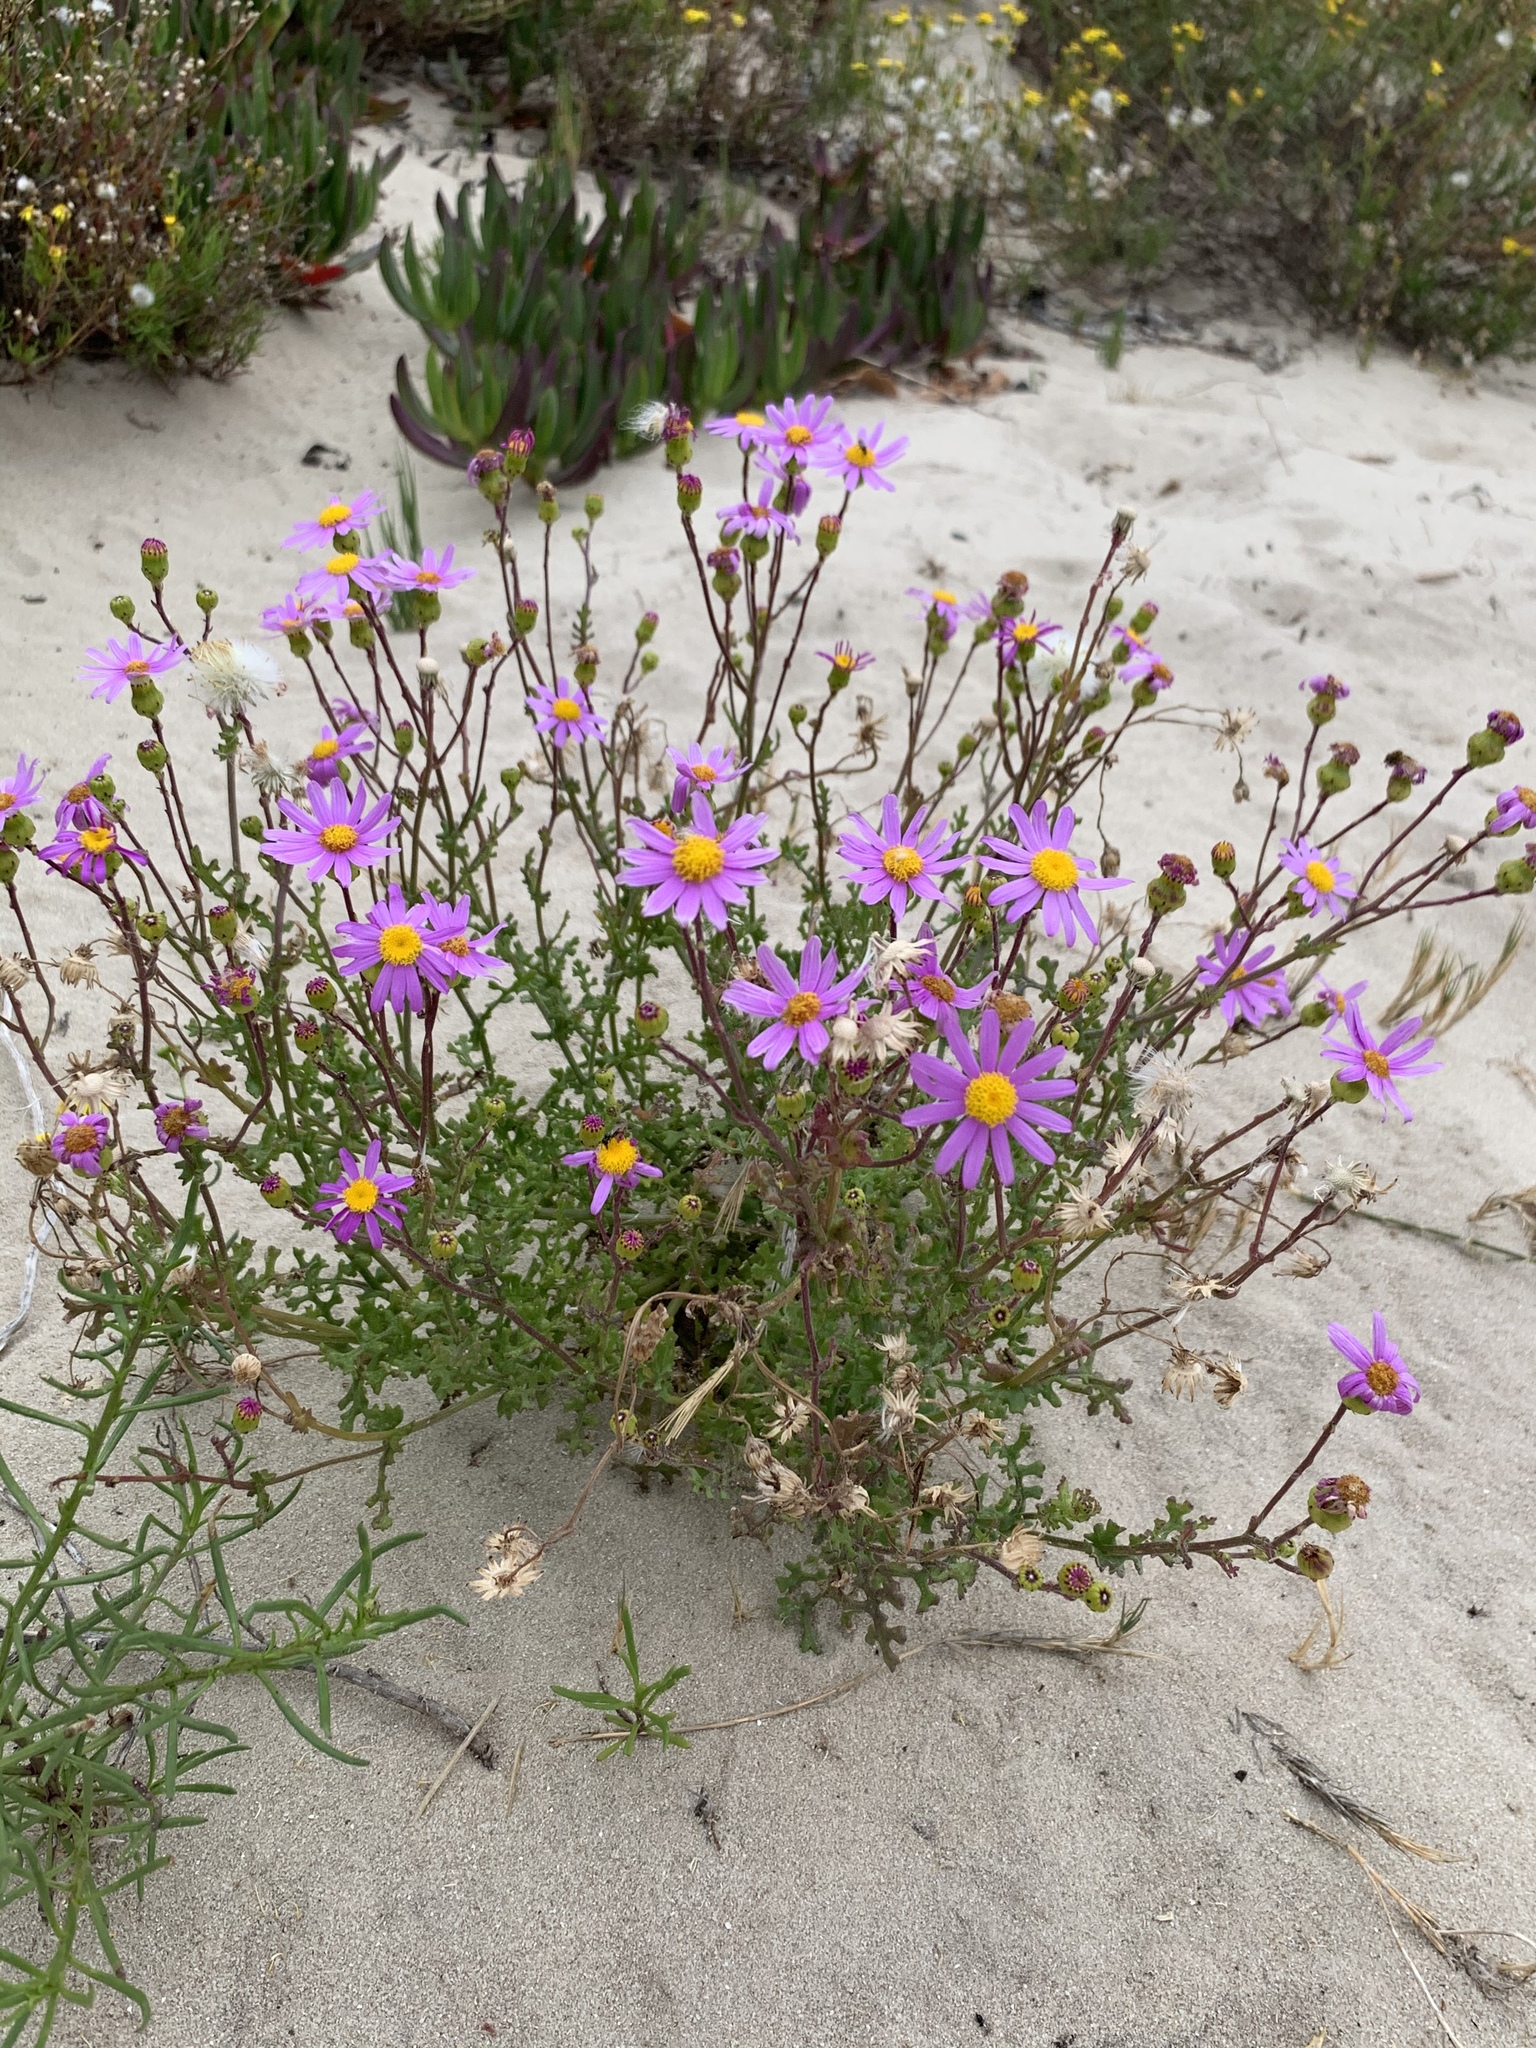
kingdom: Plantae
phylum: Tracheophyta
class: Magnoliopsida
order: Asterales
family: Asteraceae
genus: Senecio
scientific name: Senecio elegans
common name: Purple groundsel
